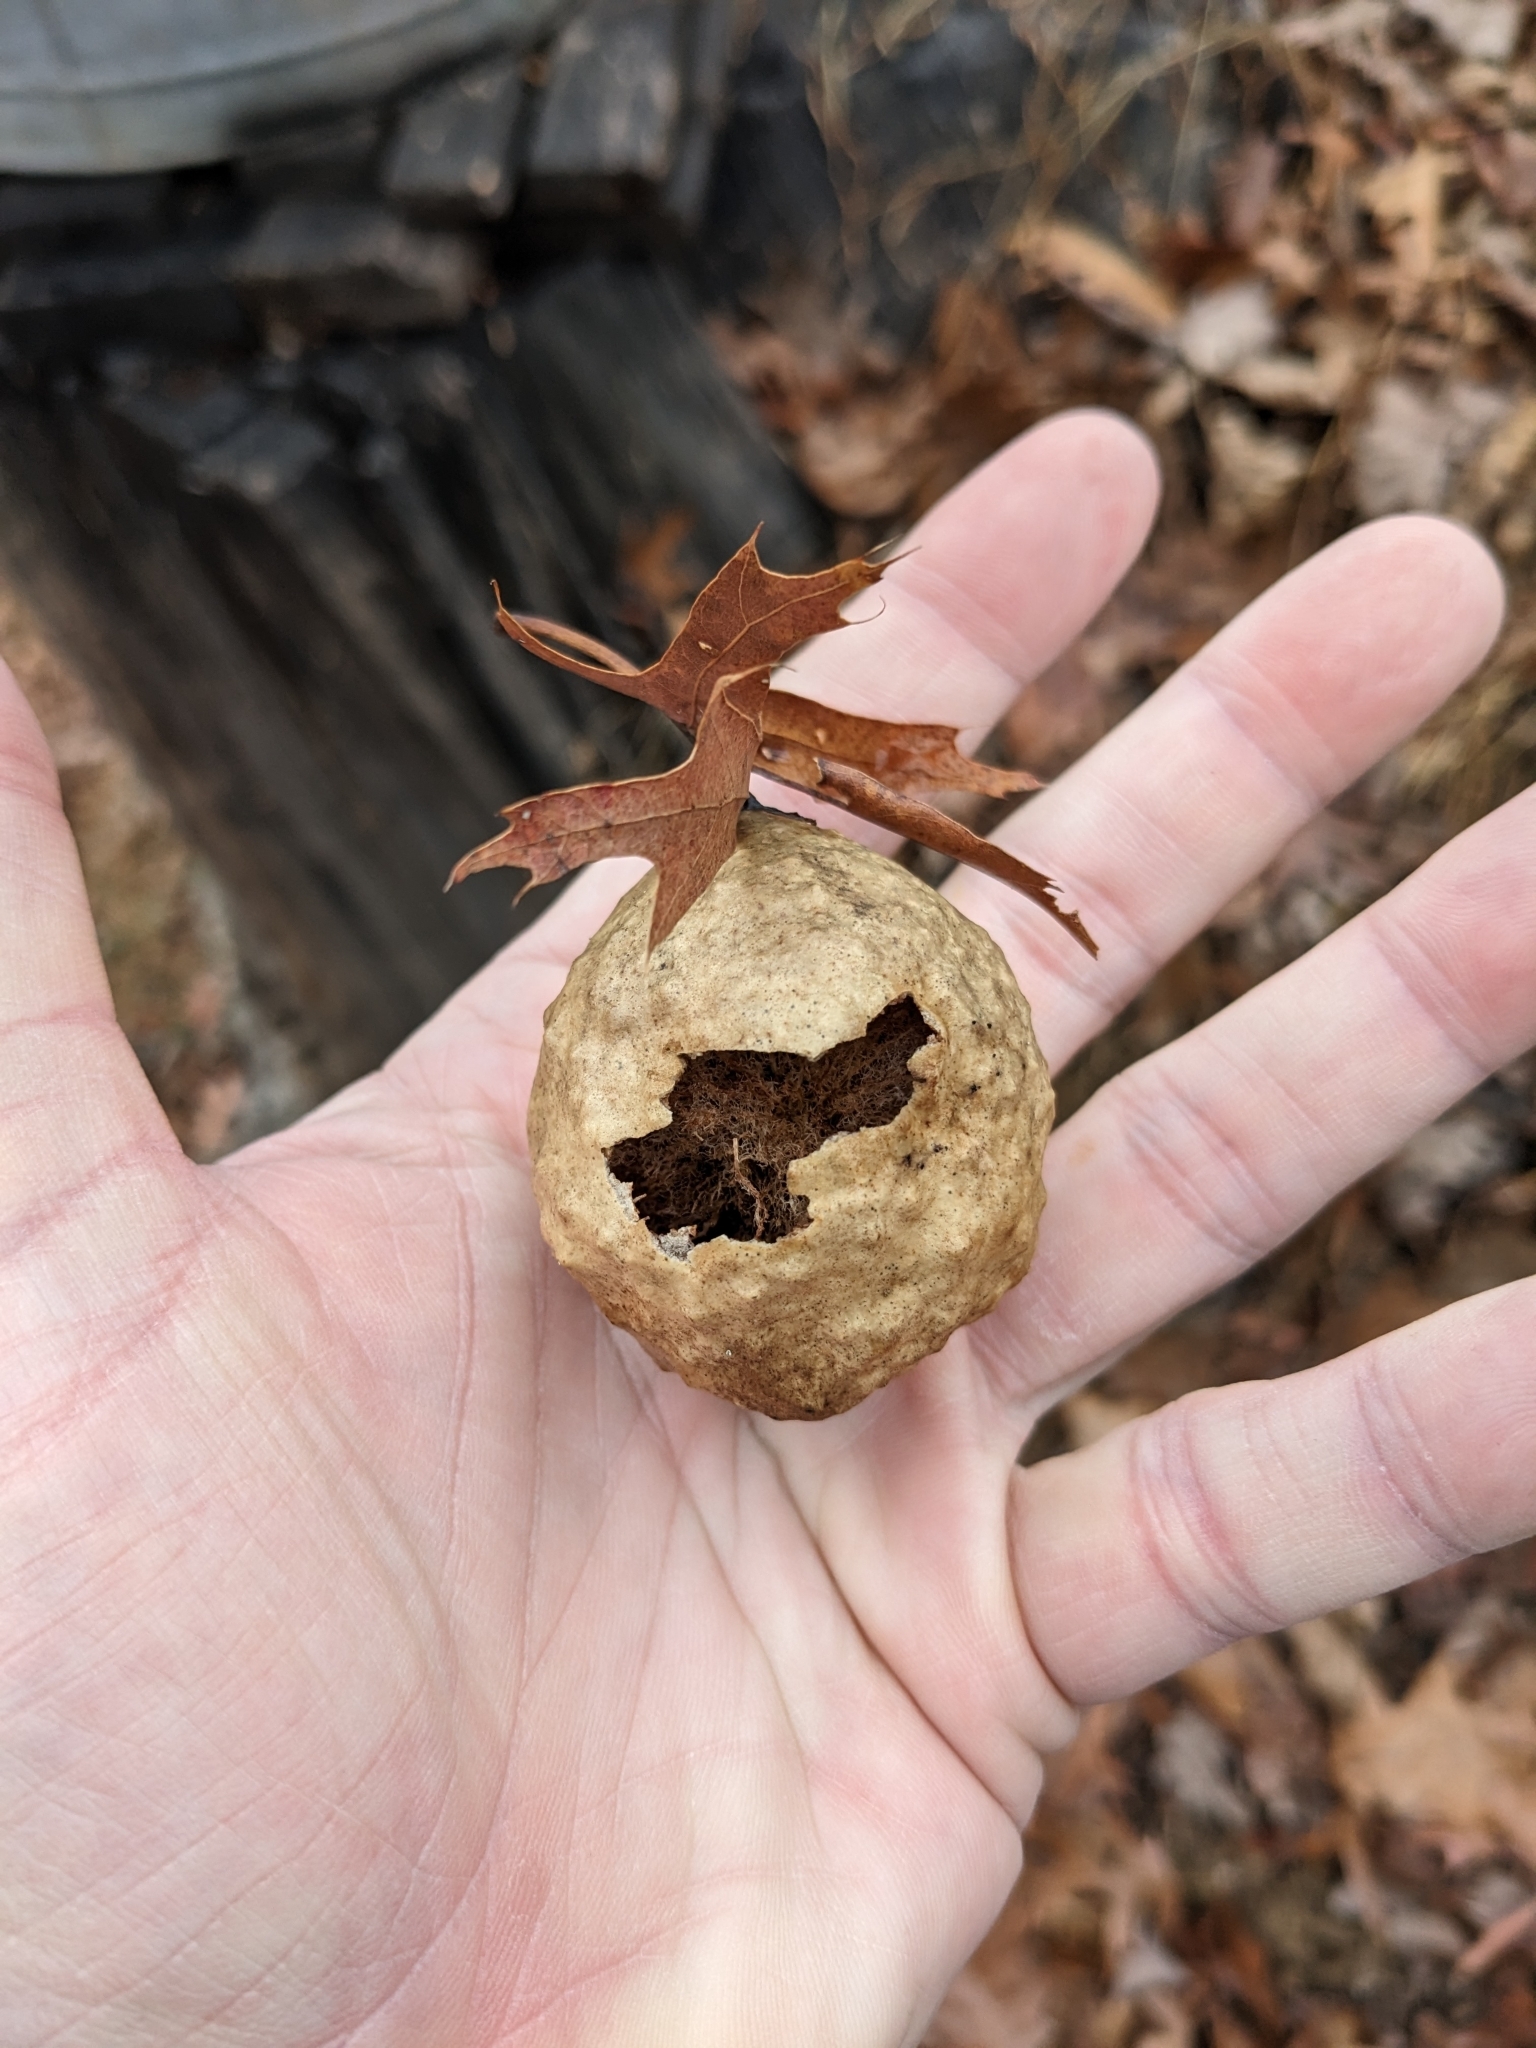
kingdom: Animalia
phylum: Arthropoda
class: Insecta
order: Hymenoptera
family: Cynipidae
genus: Amphibolips
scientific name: Amphibolips
